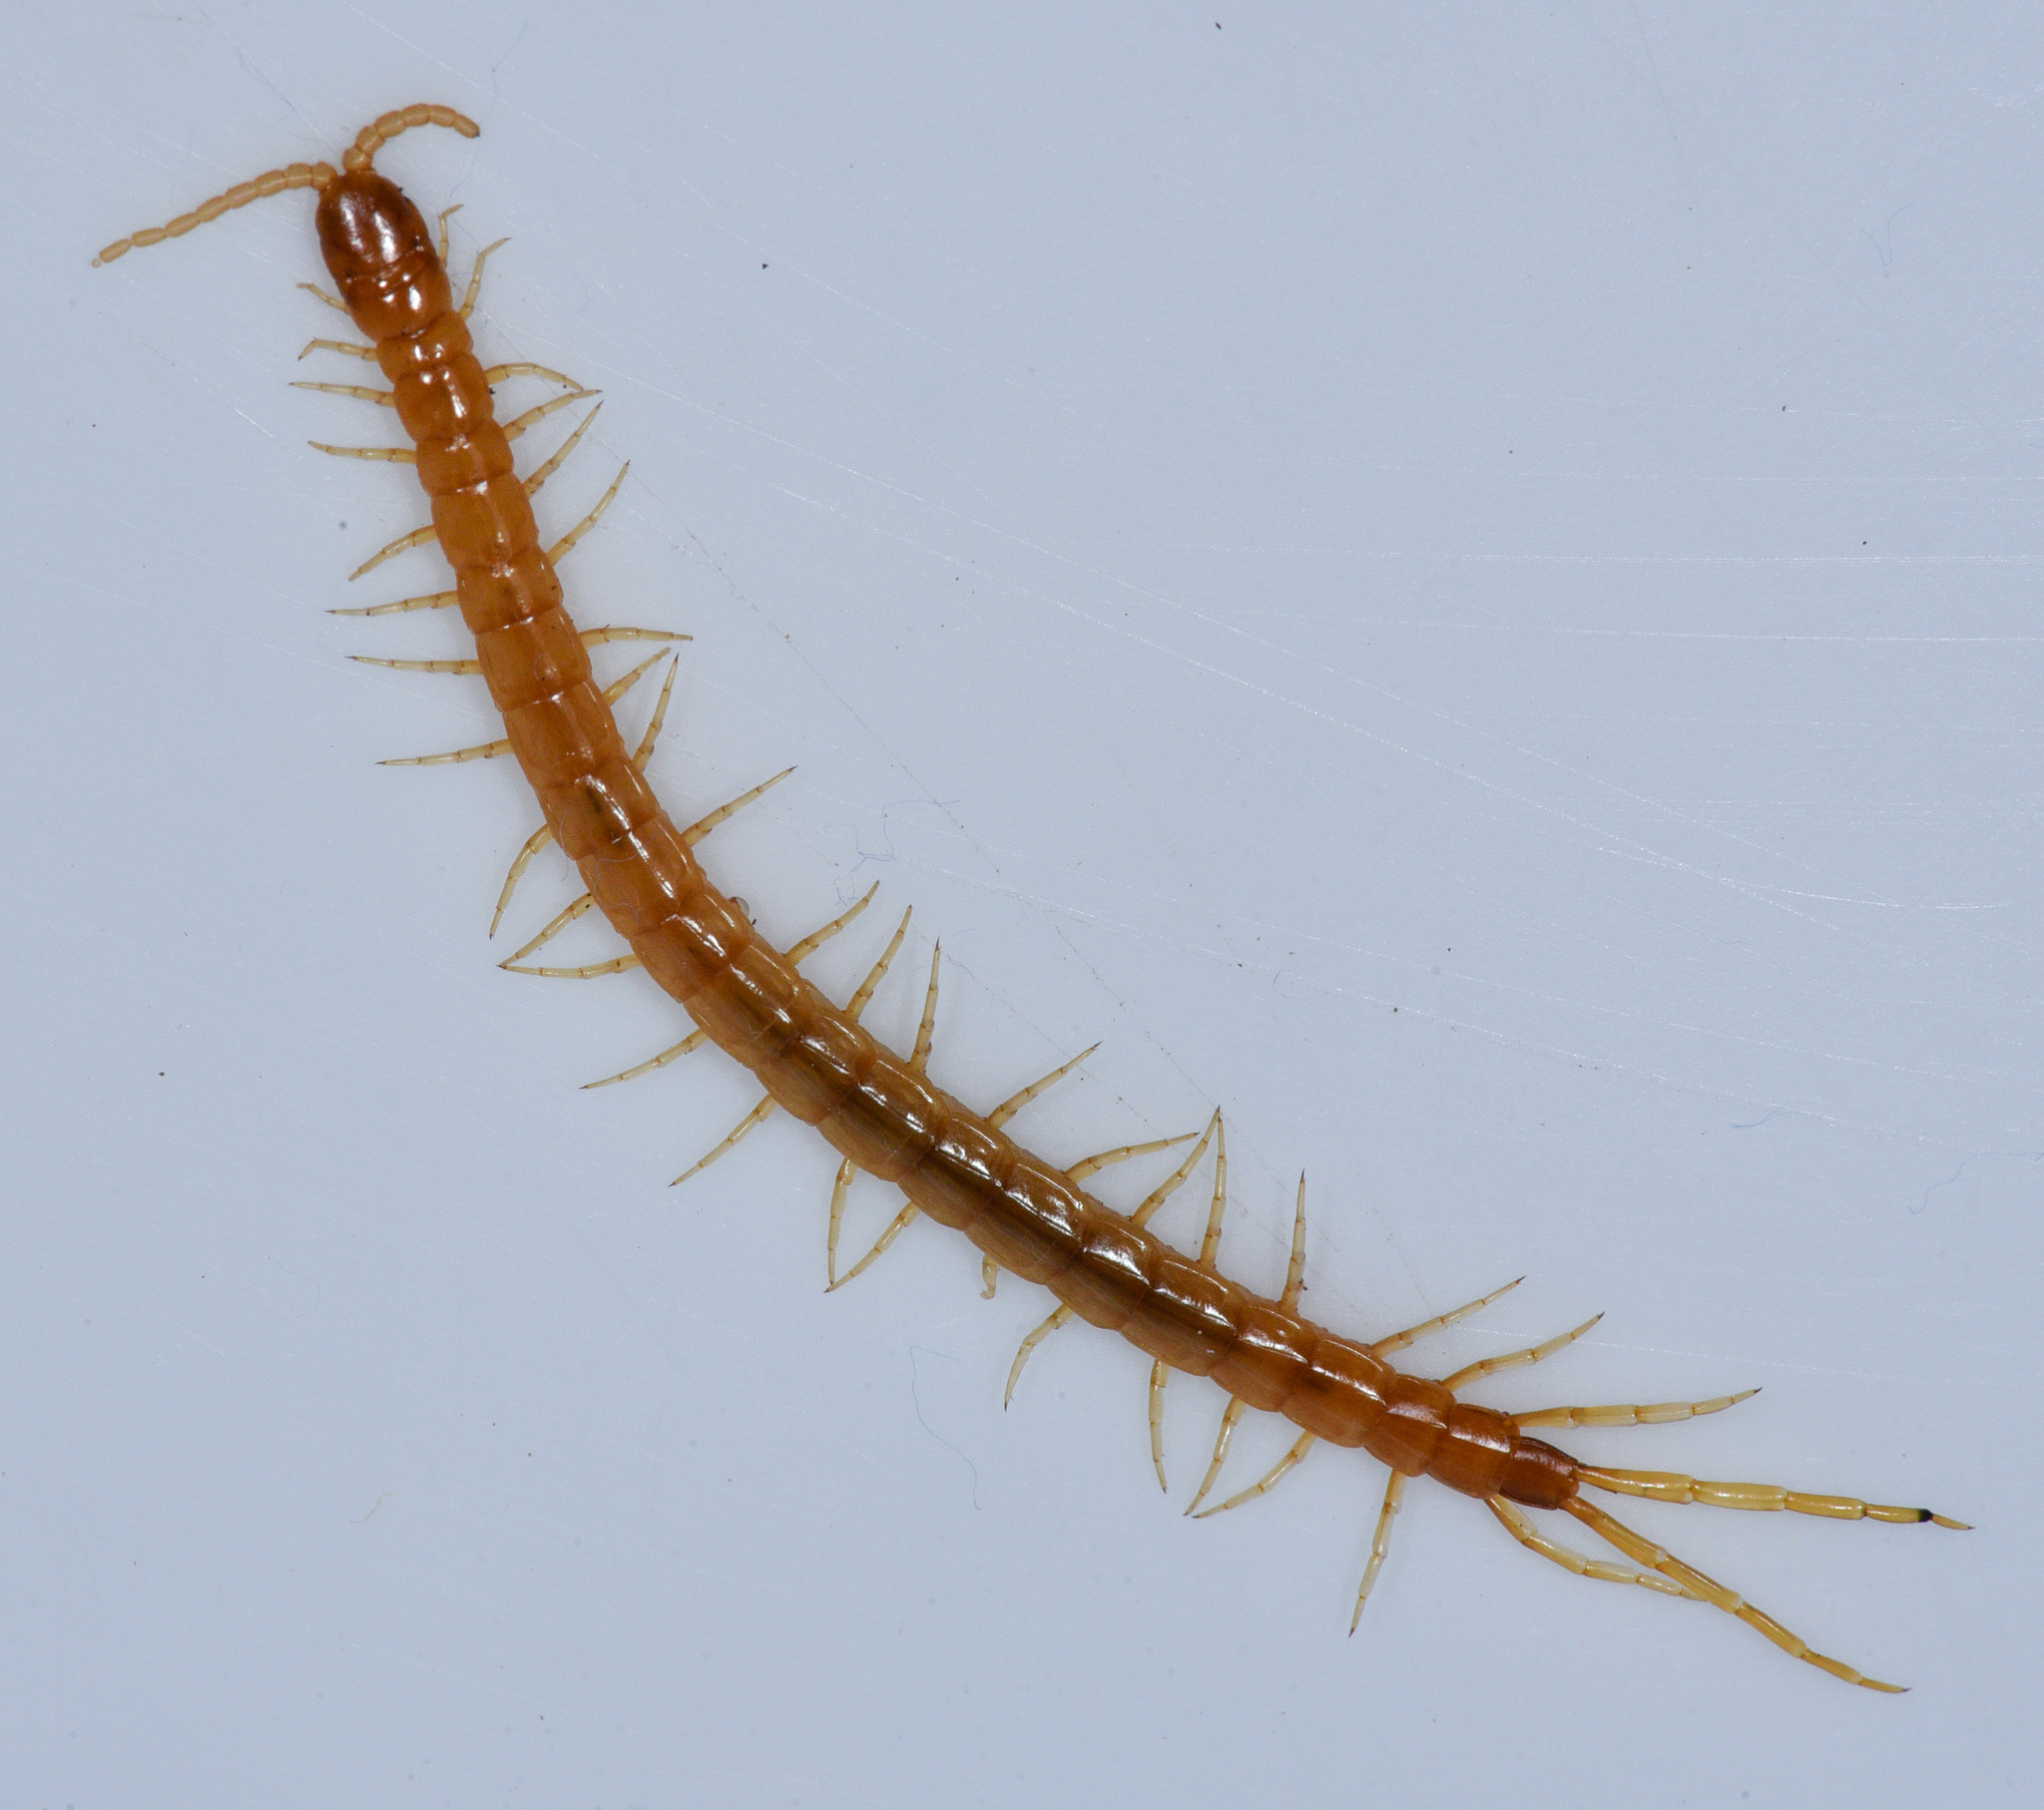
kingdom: Animalia
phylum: Arthropoda
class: Chilopoda
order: Scolopendromorpha
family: Scolopocryptopidae
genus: Scolopocryptops
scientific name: Scolopocryptops gracilis
